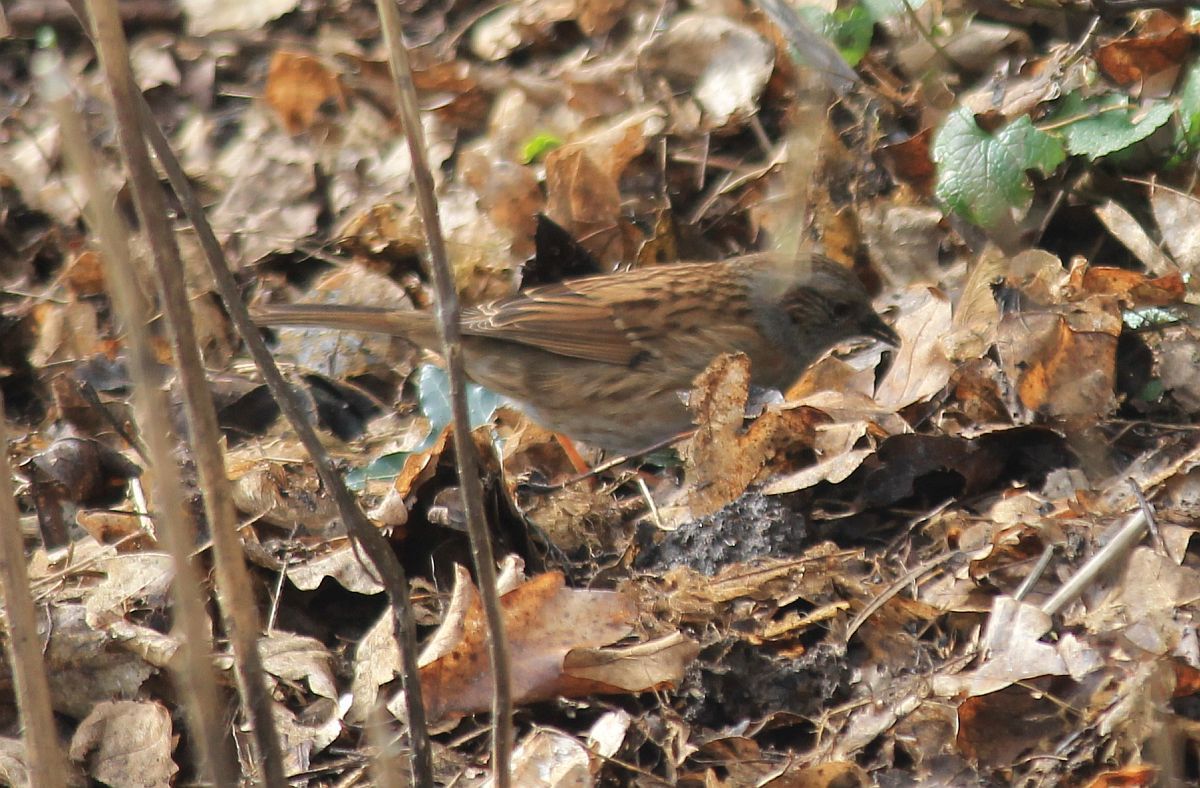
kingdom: Animalia
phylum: Chordata
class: Aves
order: Passeriformes
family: Prunellidae
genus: Prunella
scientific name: Prunella modularis
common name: Dunnock
